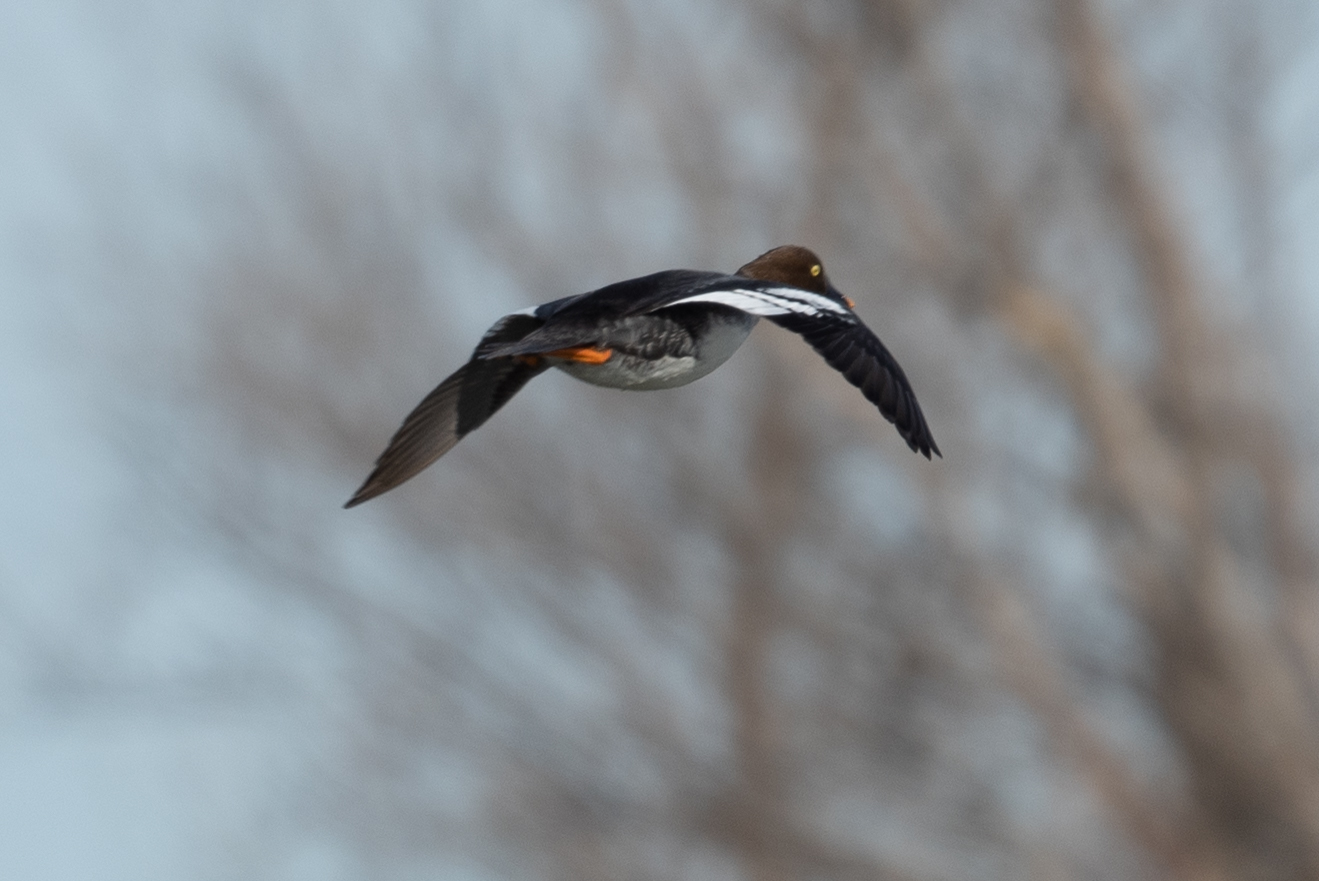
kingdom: Animalia
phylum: Chordata
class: Aves
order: Anseriformes
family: Anatidae
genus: Bucephala
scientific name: Bucephala clangula
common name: Common goldeneye
